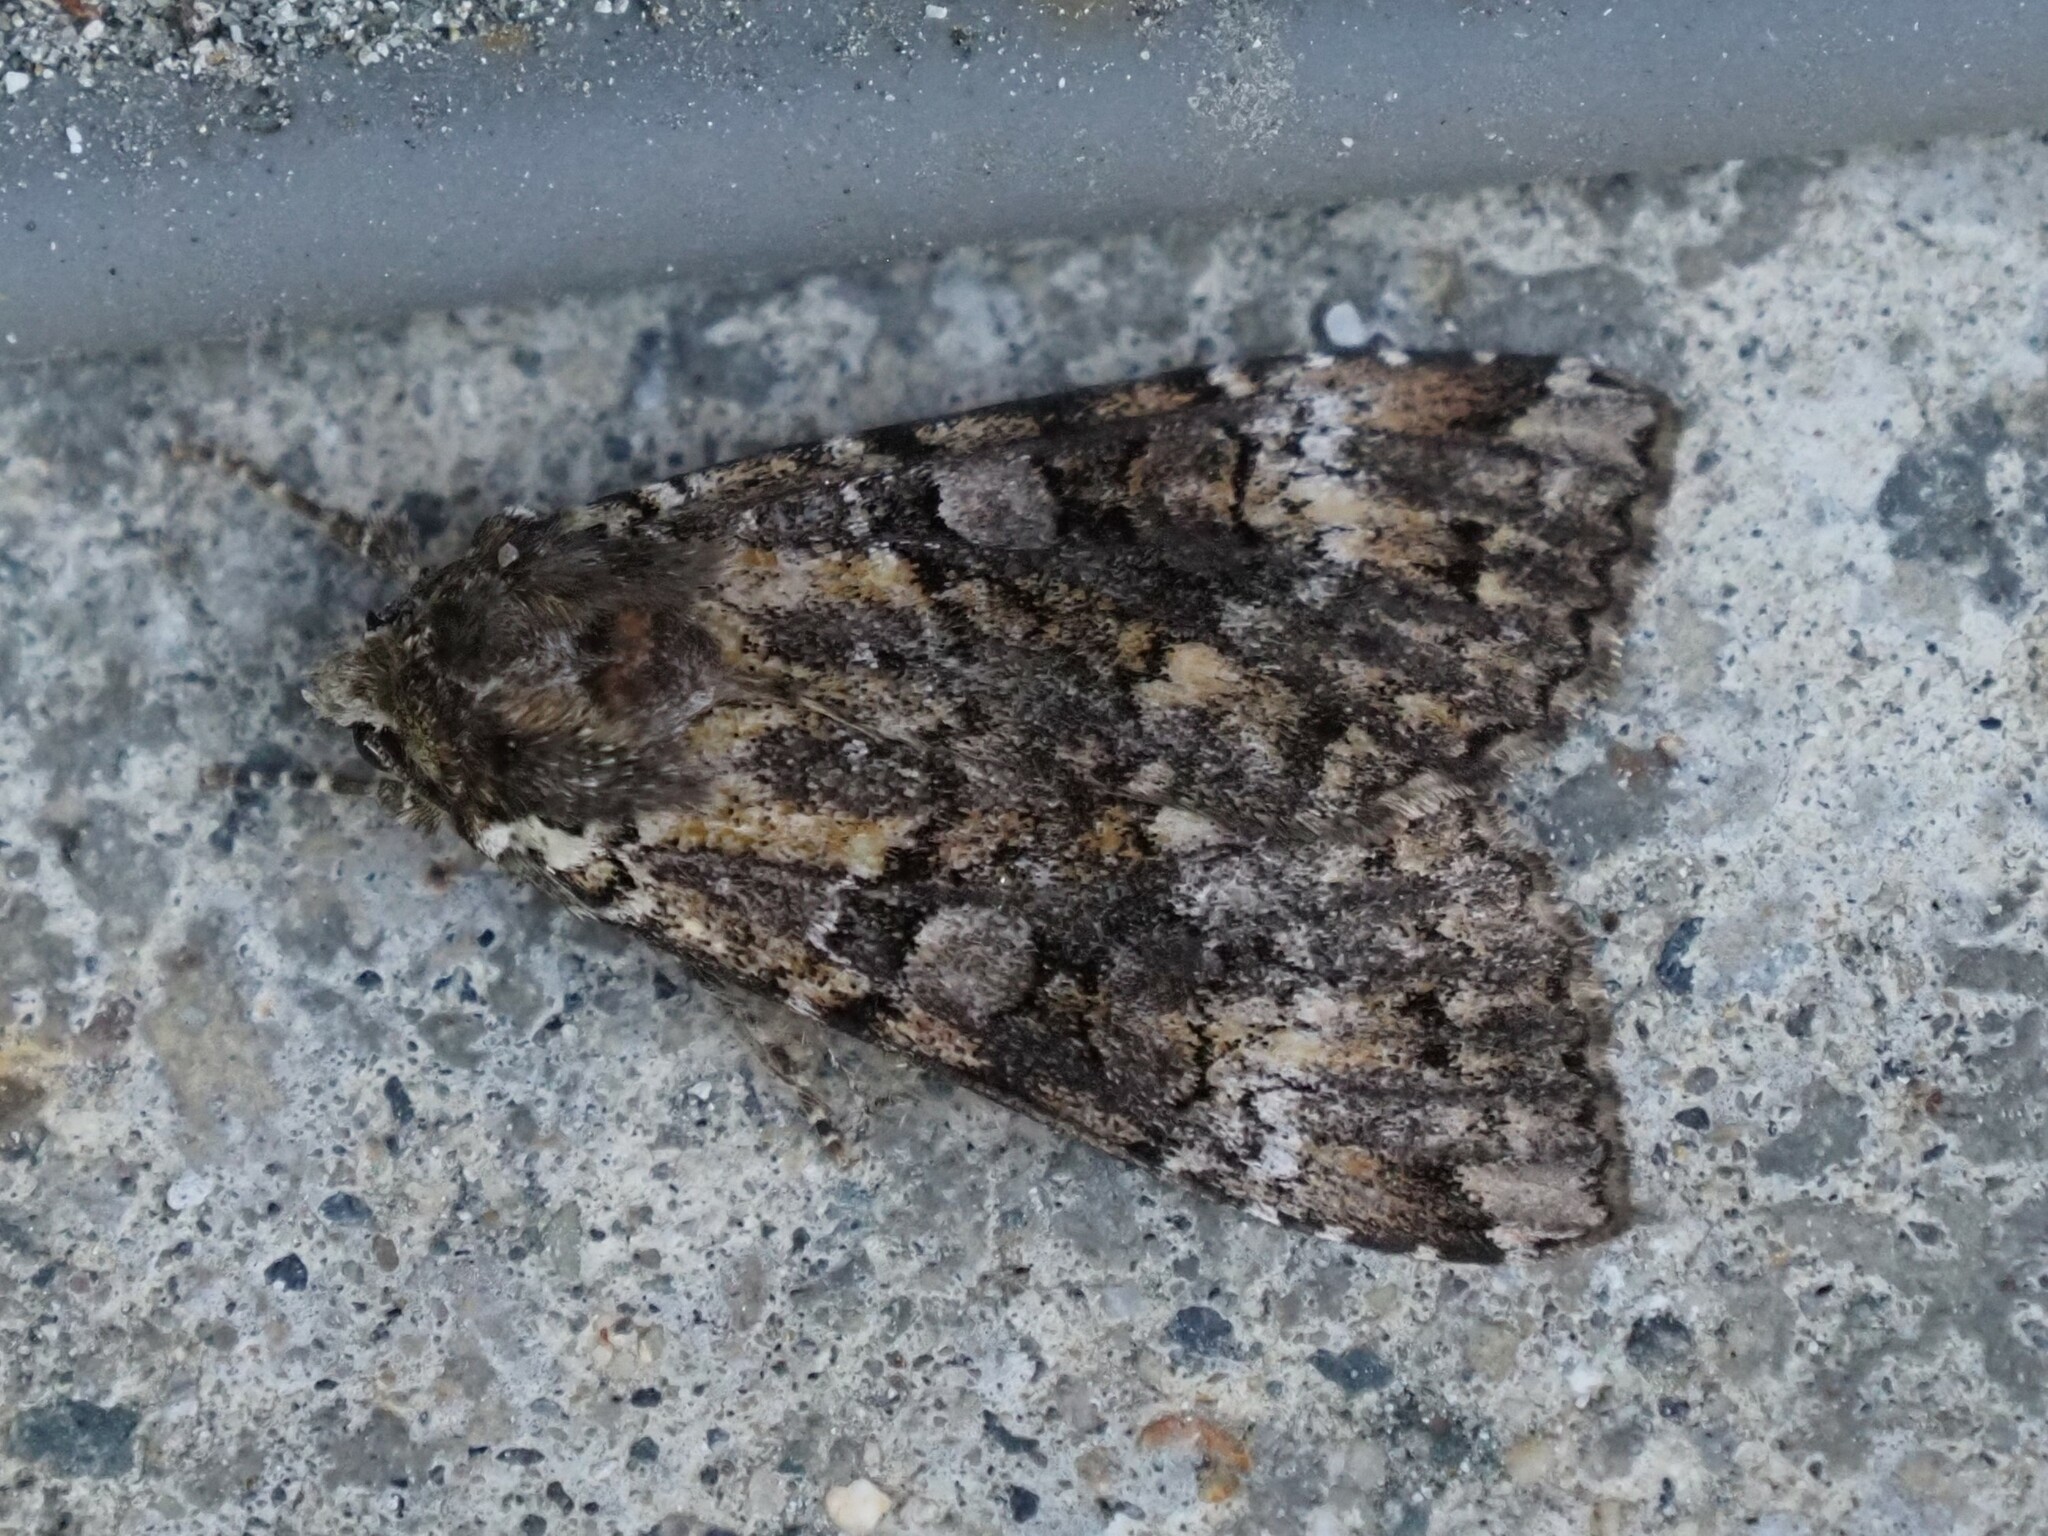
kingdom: Animalia
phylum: Arthropoda
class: Insecta
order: Lepidoptera
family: Noctuidae
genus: Anaplectoides
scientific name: Anaplectoides prasina
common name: Green arches
